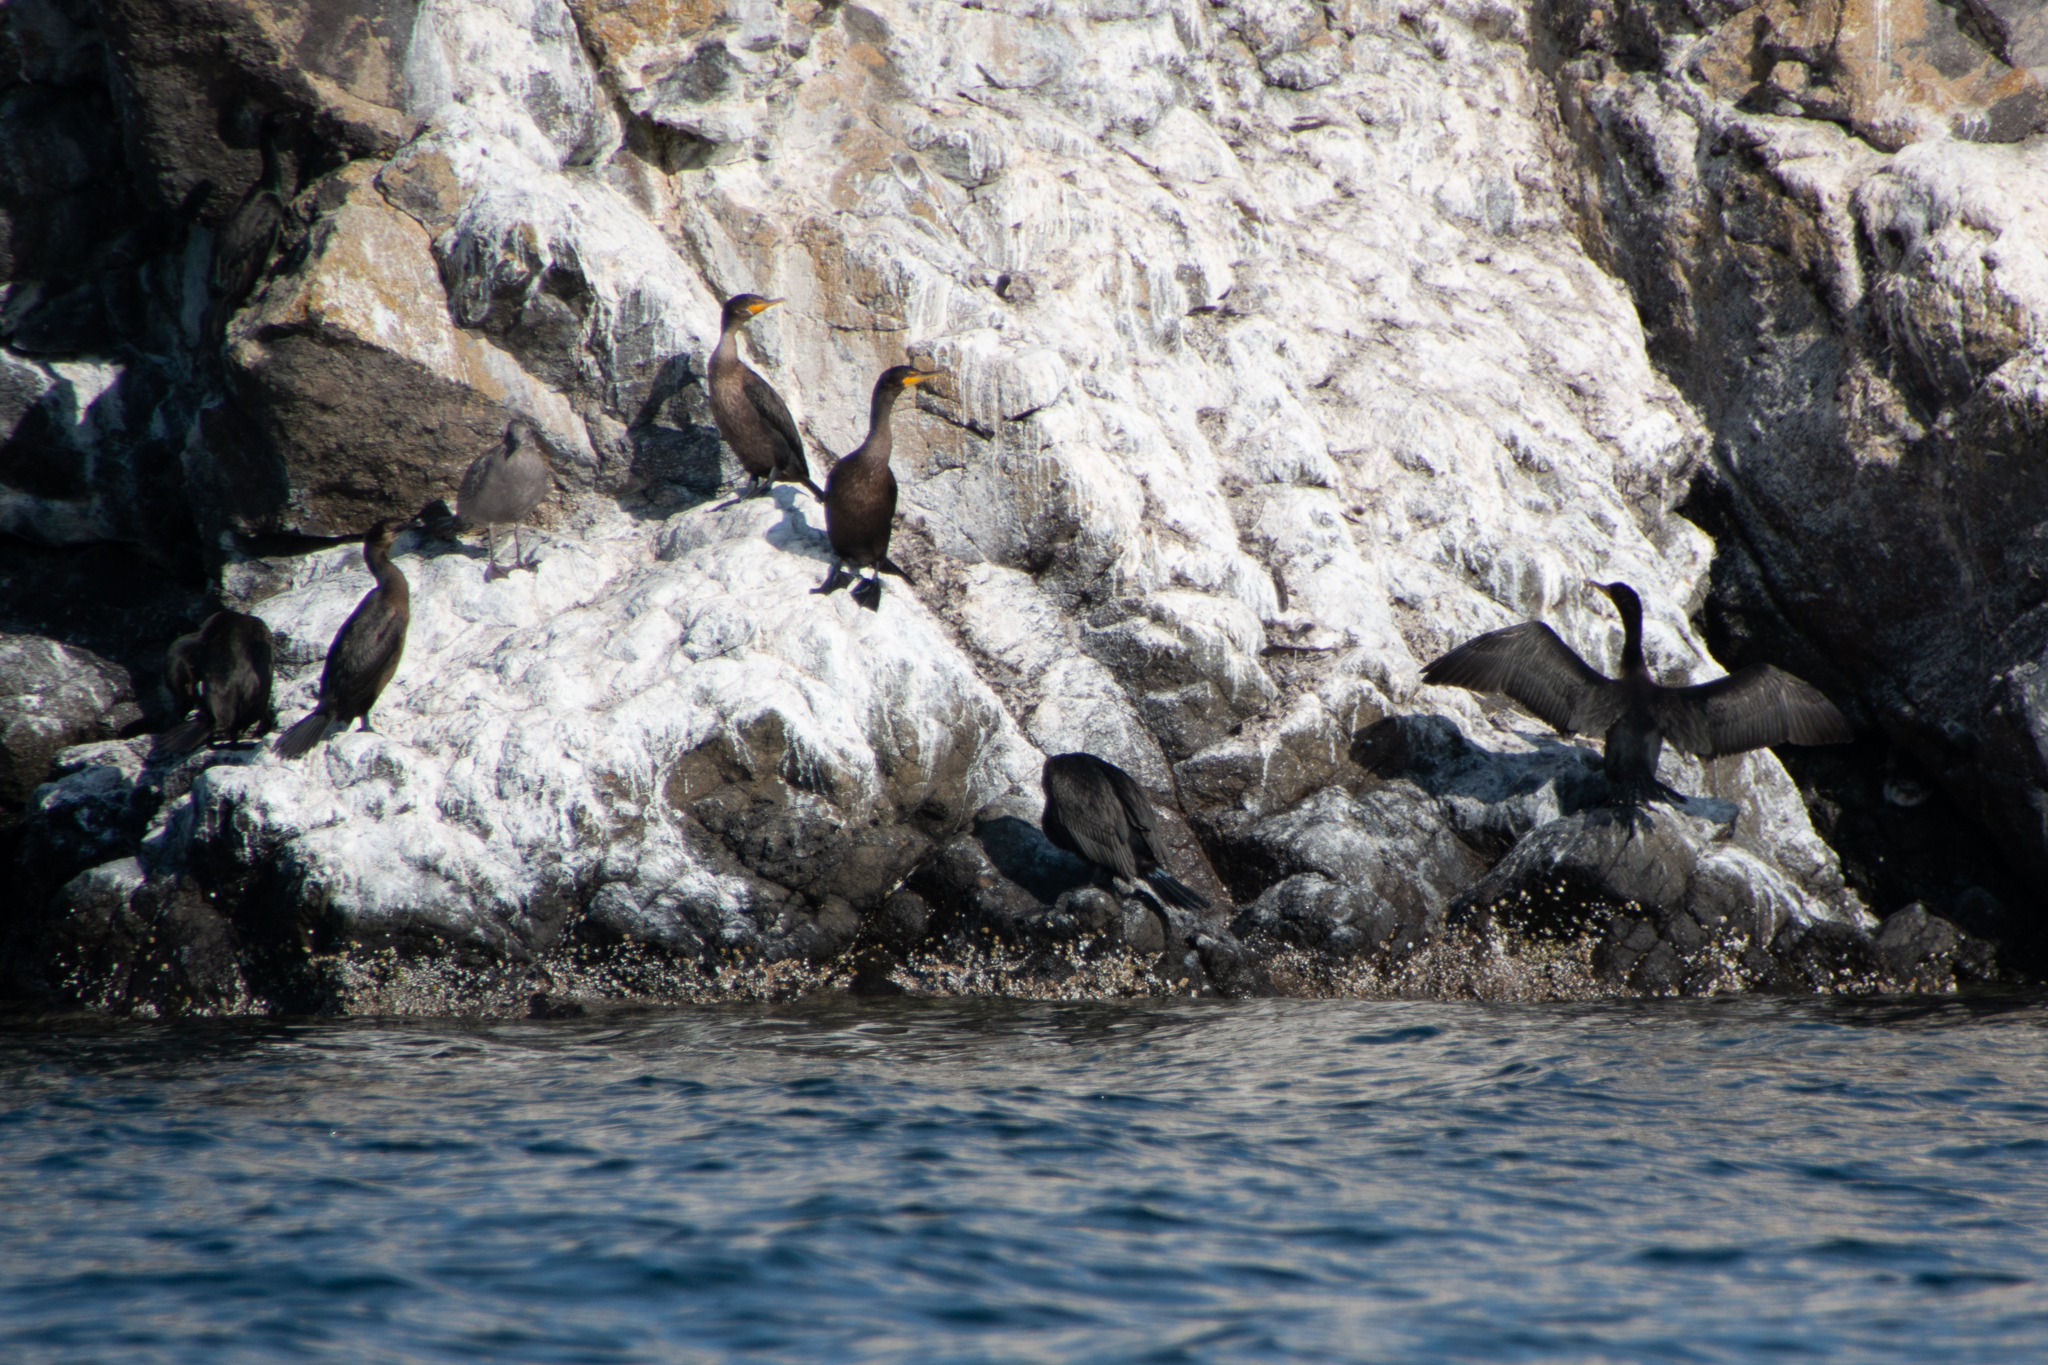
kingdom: Animalia
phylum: Chordata
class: Aves
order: Suliformes
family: Phalacrocoracidae
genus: Phalacrocorax
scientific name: Phalacrocorax auritus
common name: Double-crested cormorant
